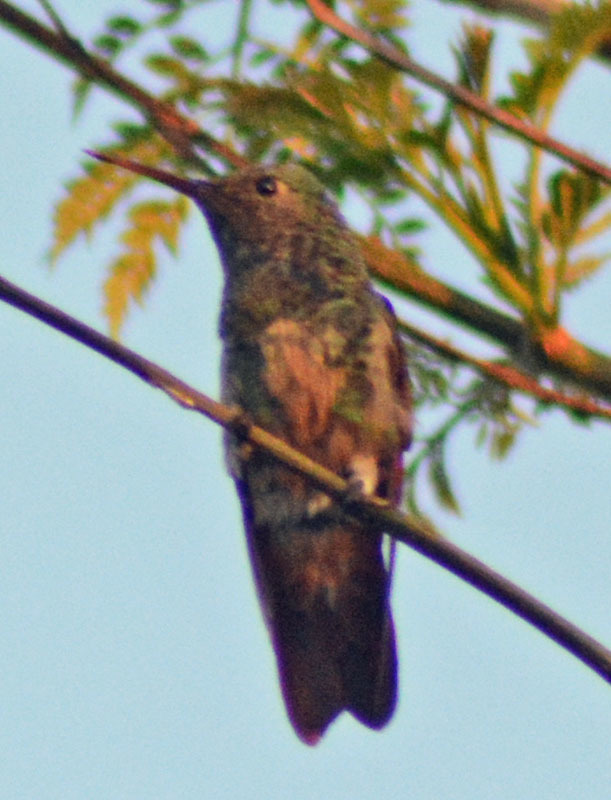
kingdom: Animalia
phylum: Chordata
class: Aves
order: Apodiformes
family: Trochilidae
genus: Saucerottia
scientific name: Saucerottia beryllina
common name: Berylline hummingbird
